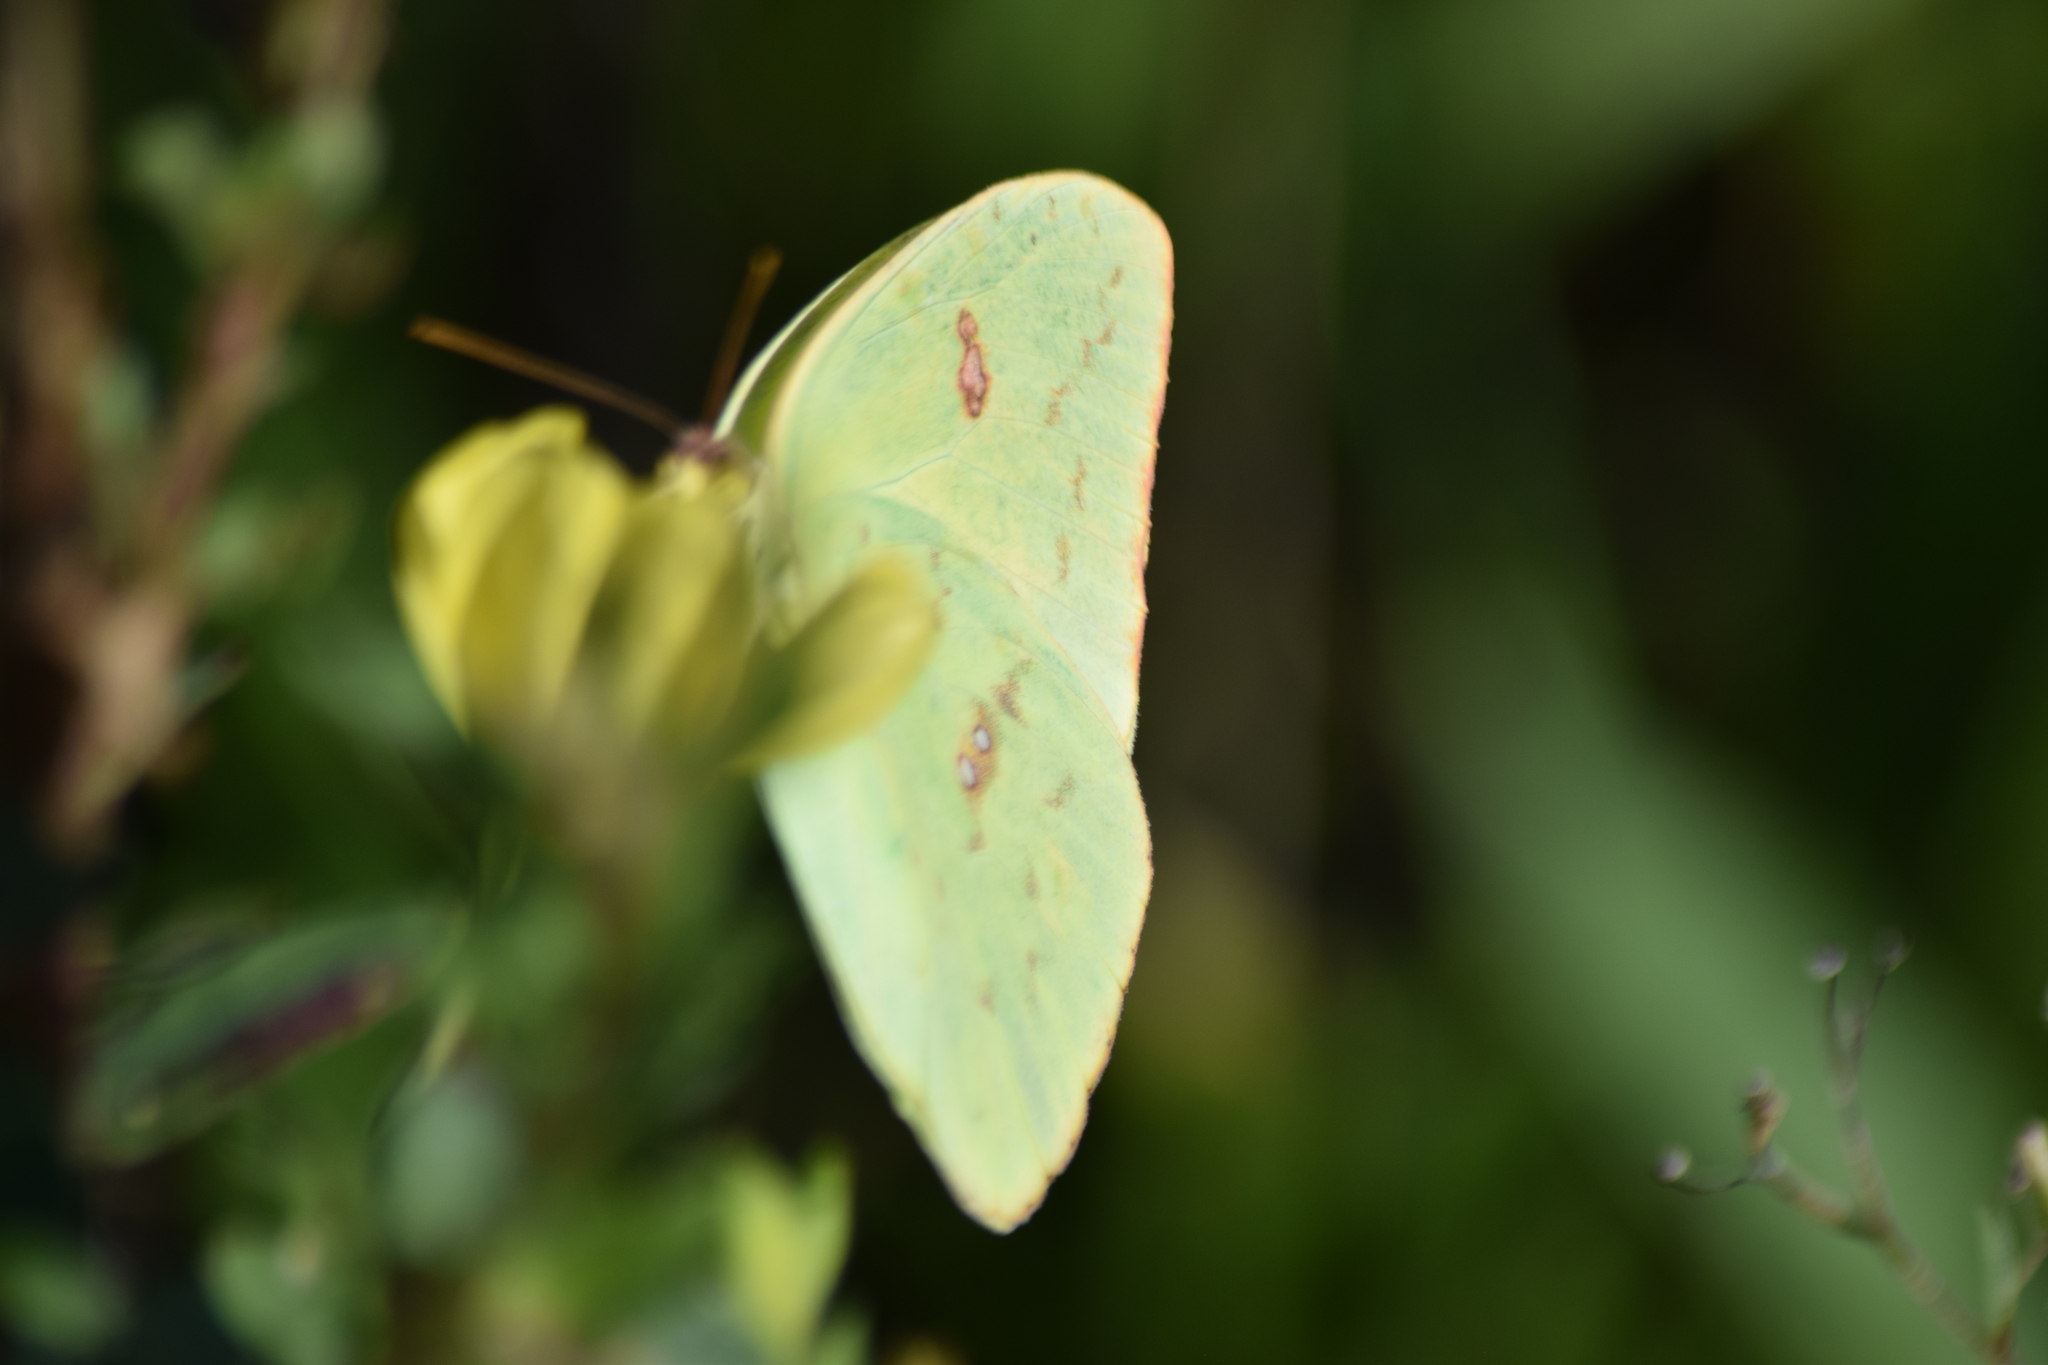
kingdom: Animalia
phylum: Arthropoda
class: Insecta
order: Lepidoptera
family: Pieridae
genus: Phoebis
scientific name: Phoebis sennae
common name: Cloudless sulphur
